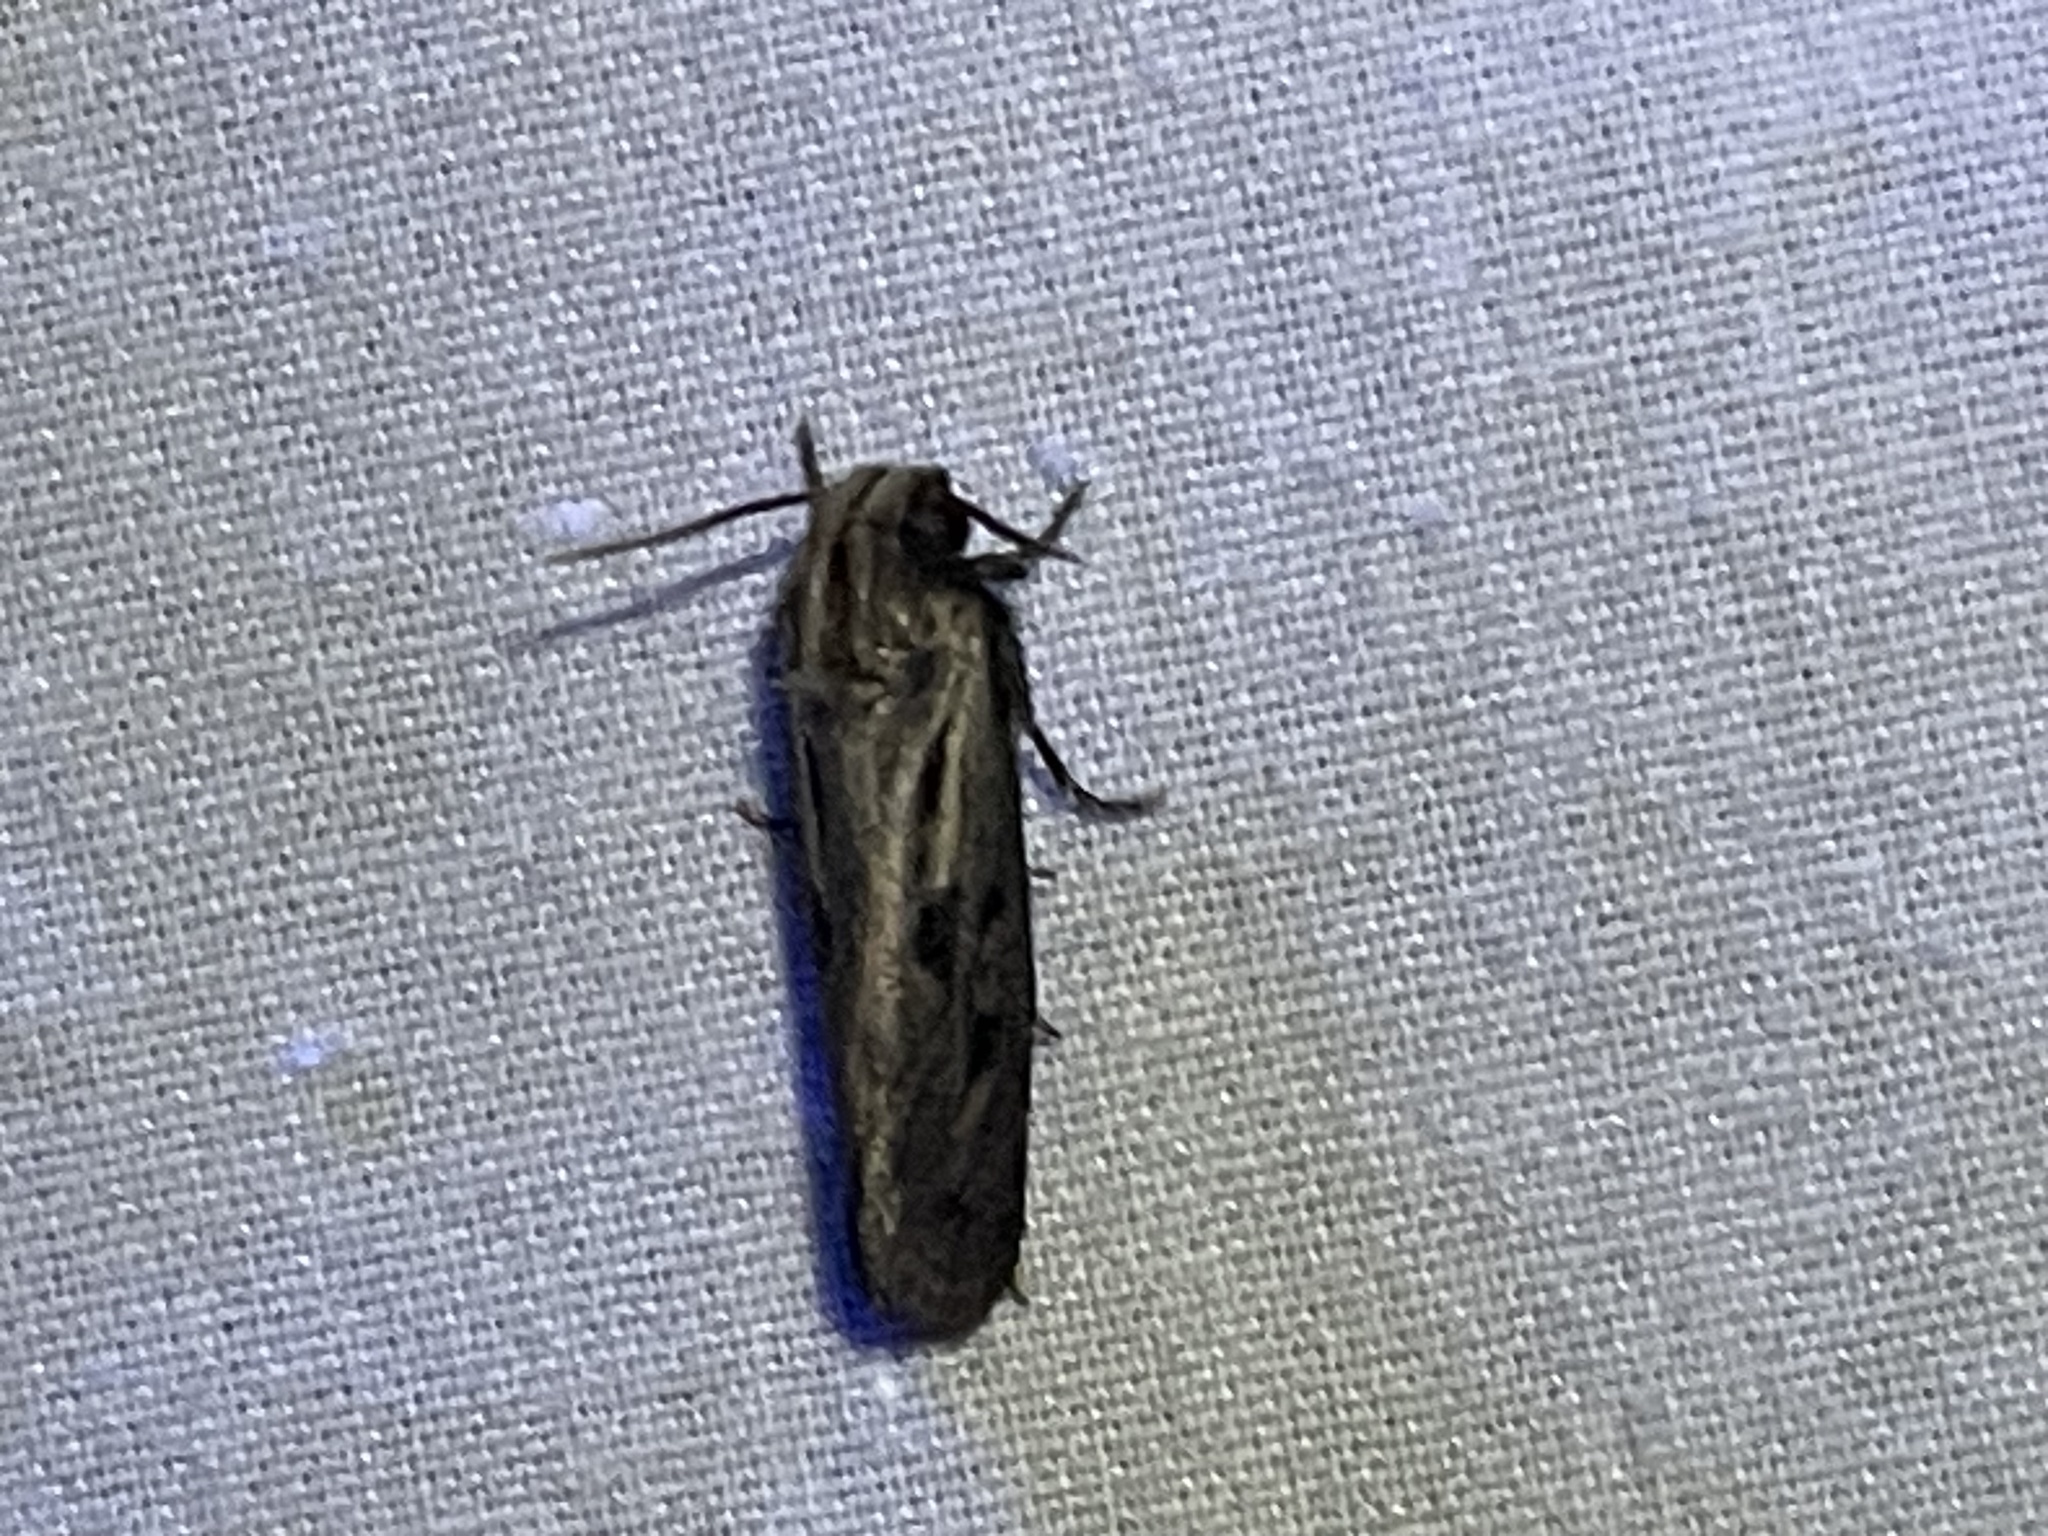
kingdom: Animalia
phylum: Arthropoda
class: Insecta
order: Lepidoptera
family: Tineidae
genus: Acrolophus
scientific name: Acrolophus popeanella
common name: Clemens' grass tubeworm moth
